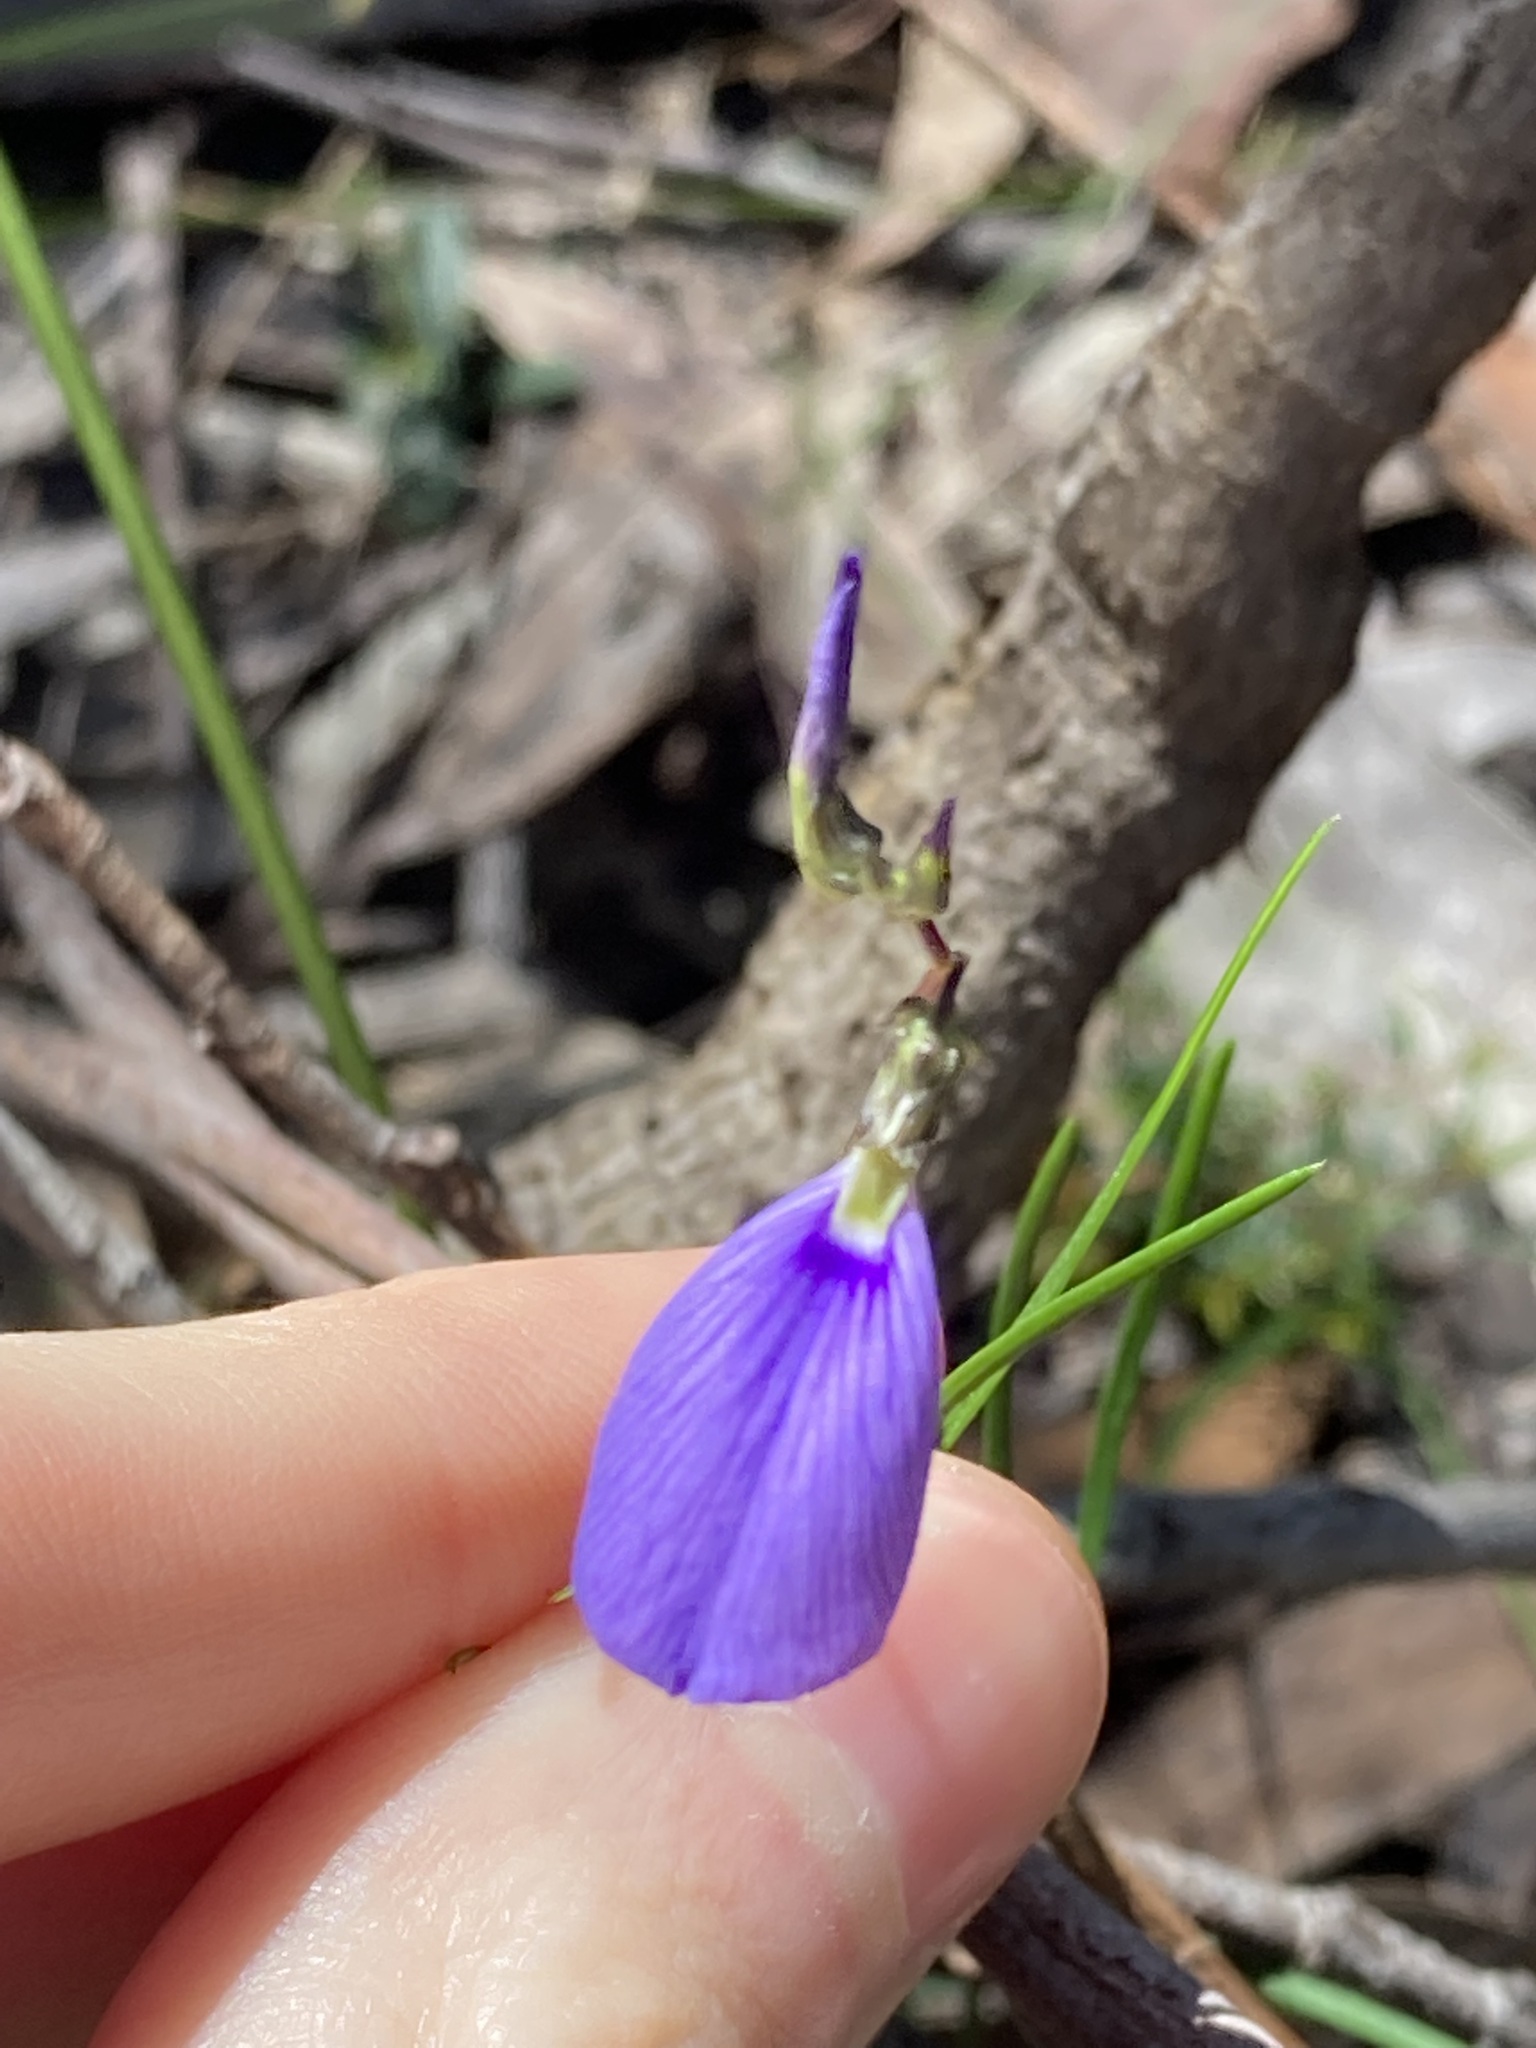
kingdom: Plantae
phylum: Tracheophyta
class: Magnoliopsida
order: Malpighiales
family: Violaceae
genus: Pigea
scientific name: Pigea monopetala
